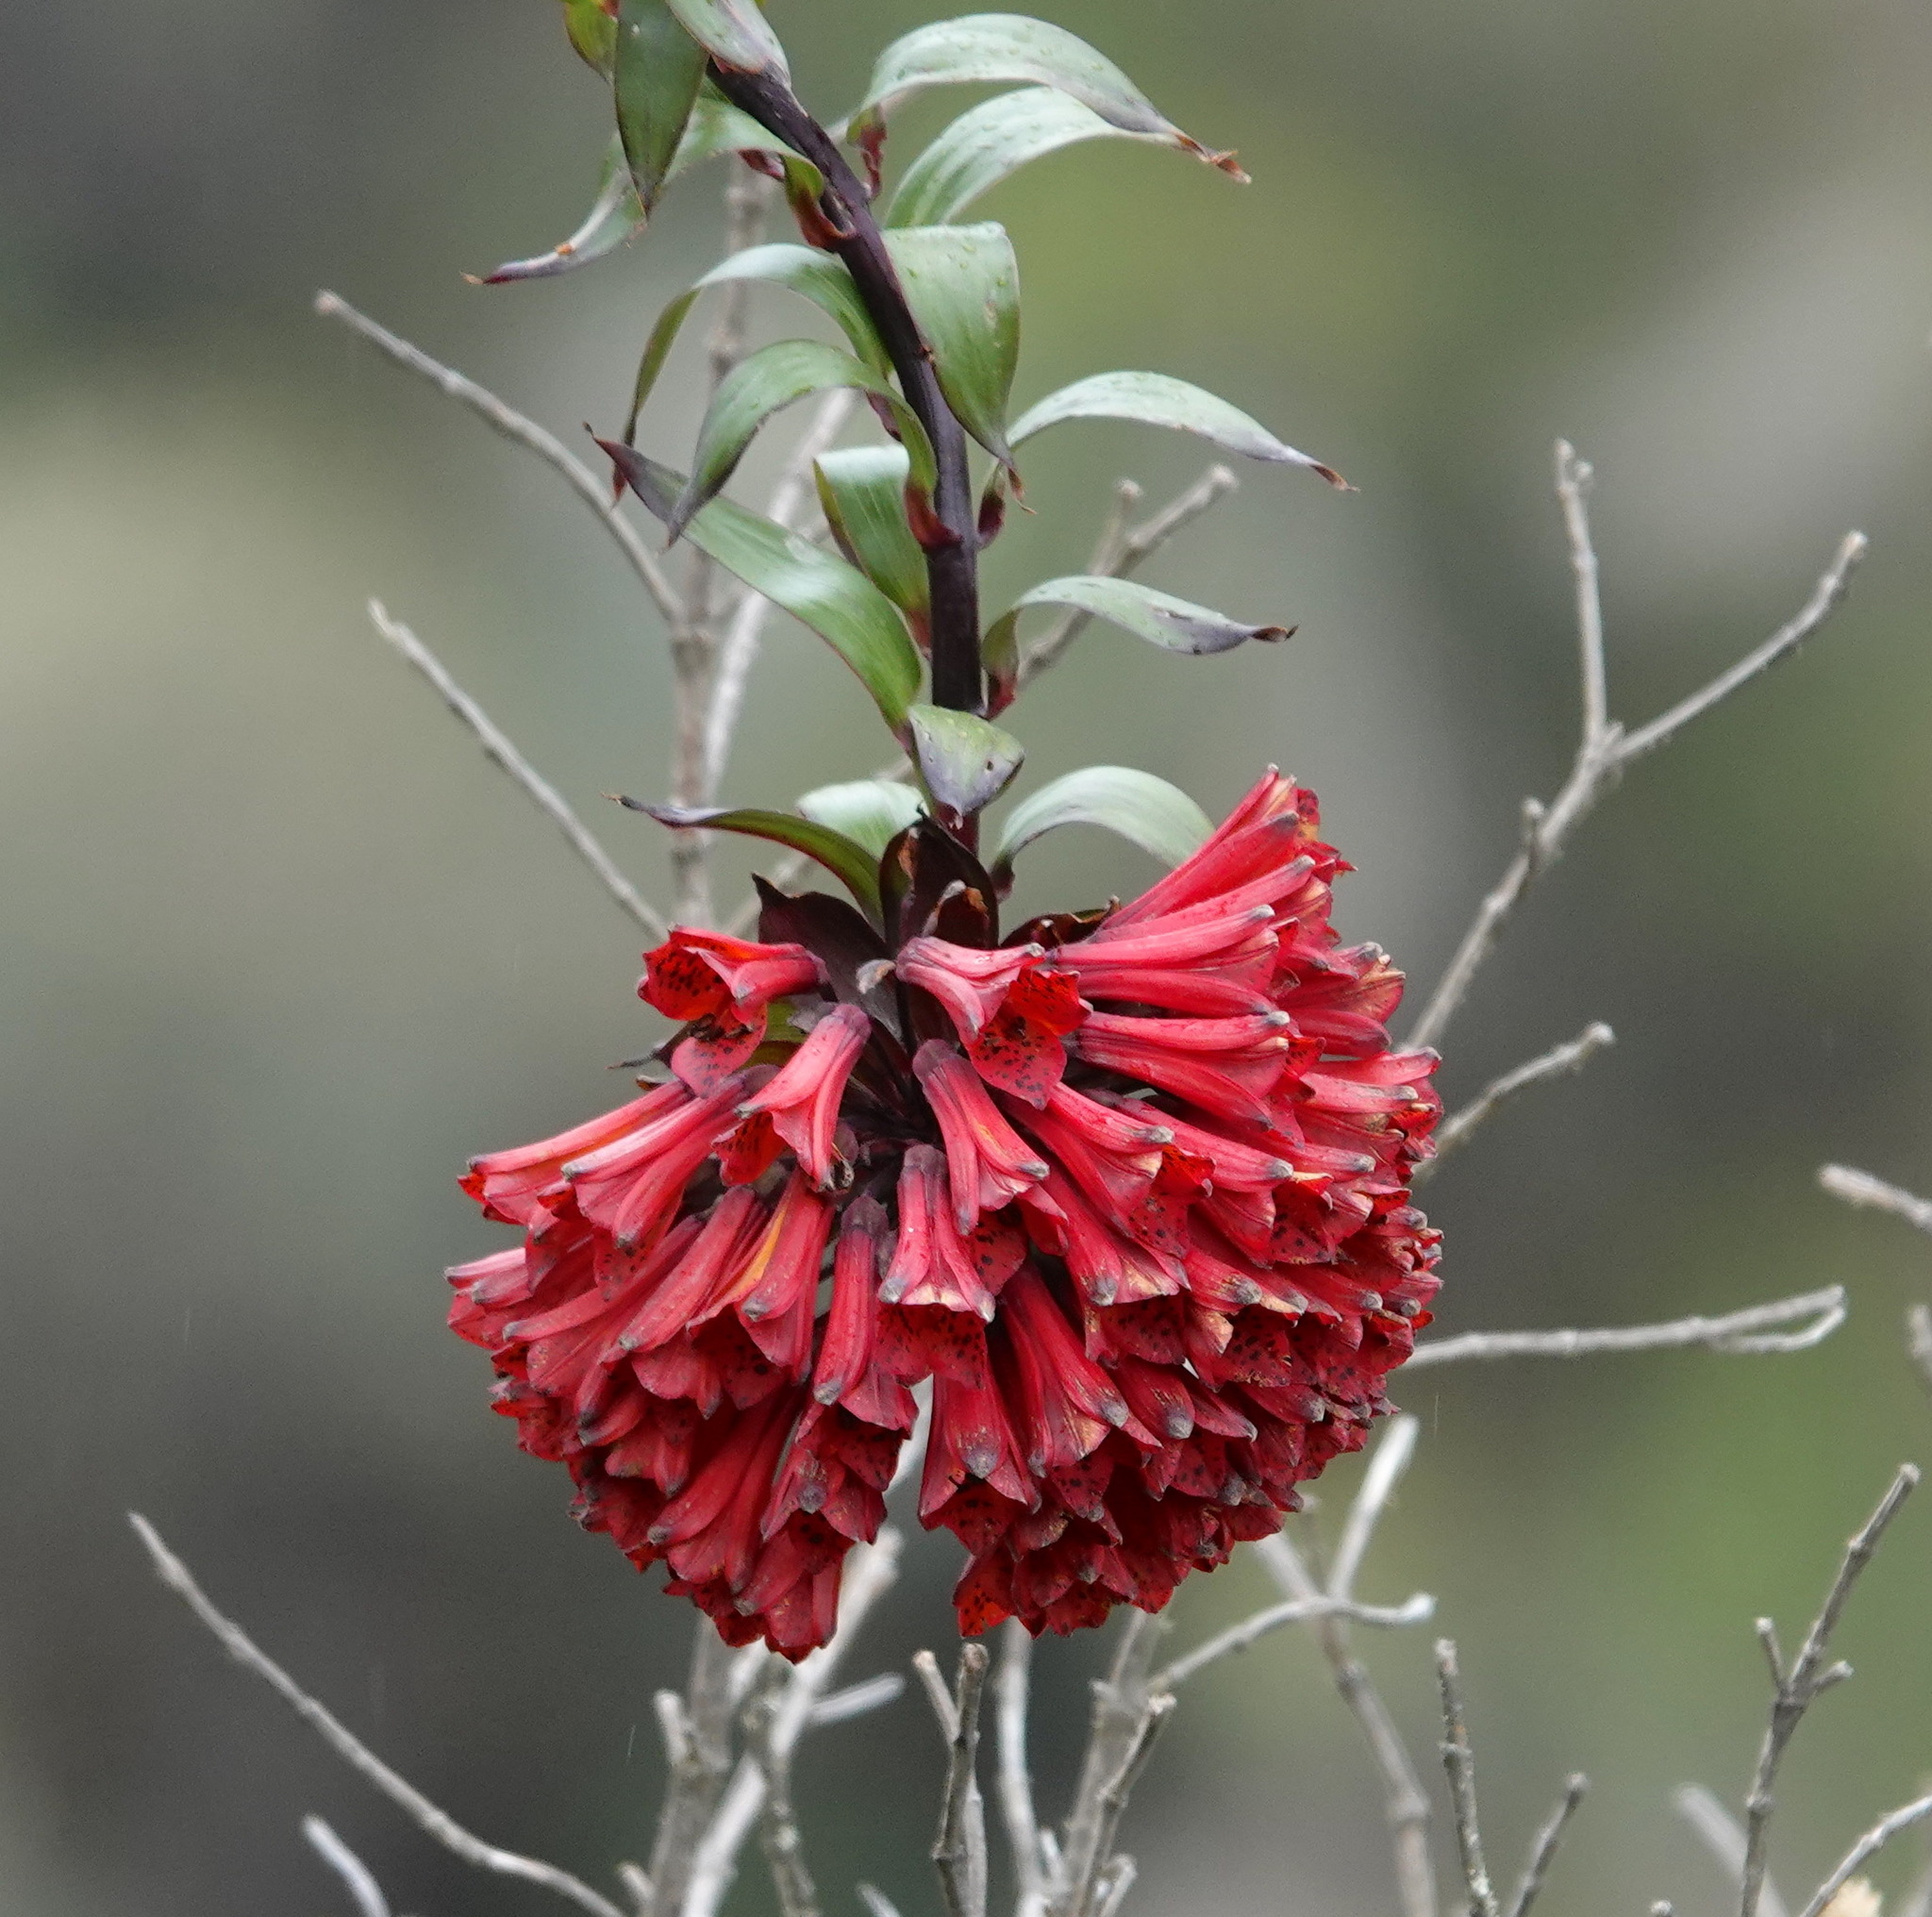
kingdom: Plantae
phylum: Tracheophyta
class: Liliopsida
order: Liliales
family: Alstroemeriaceae
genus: Bomarea
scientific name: Bomarea formosissima
